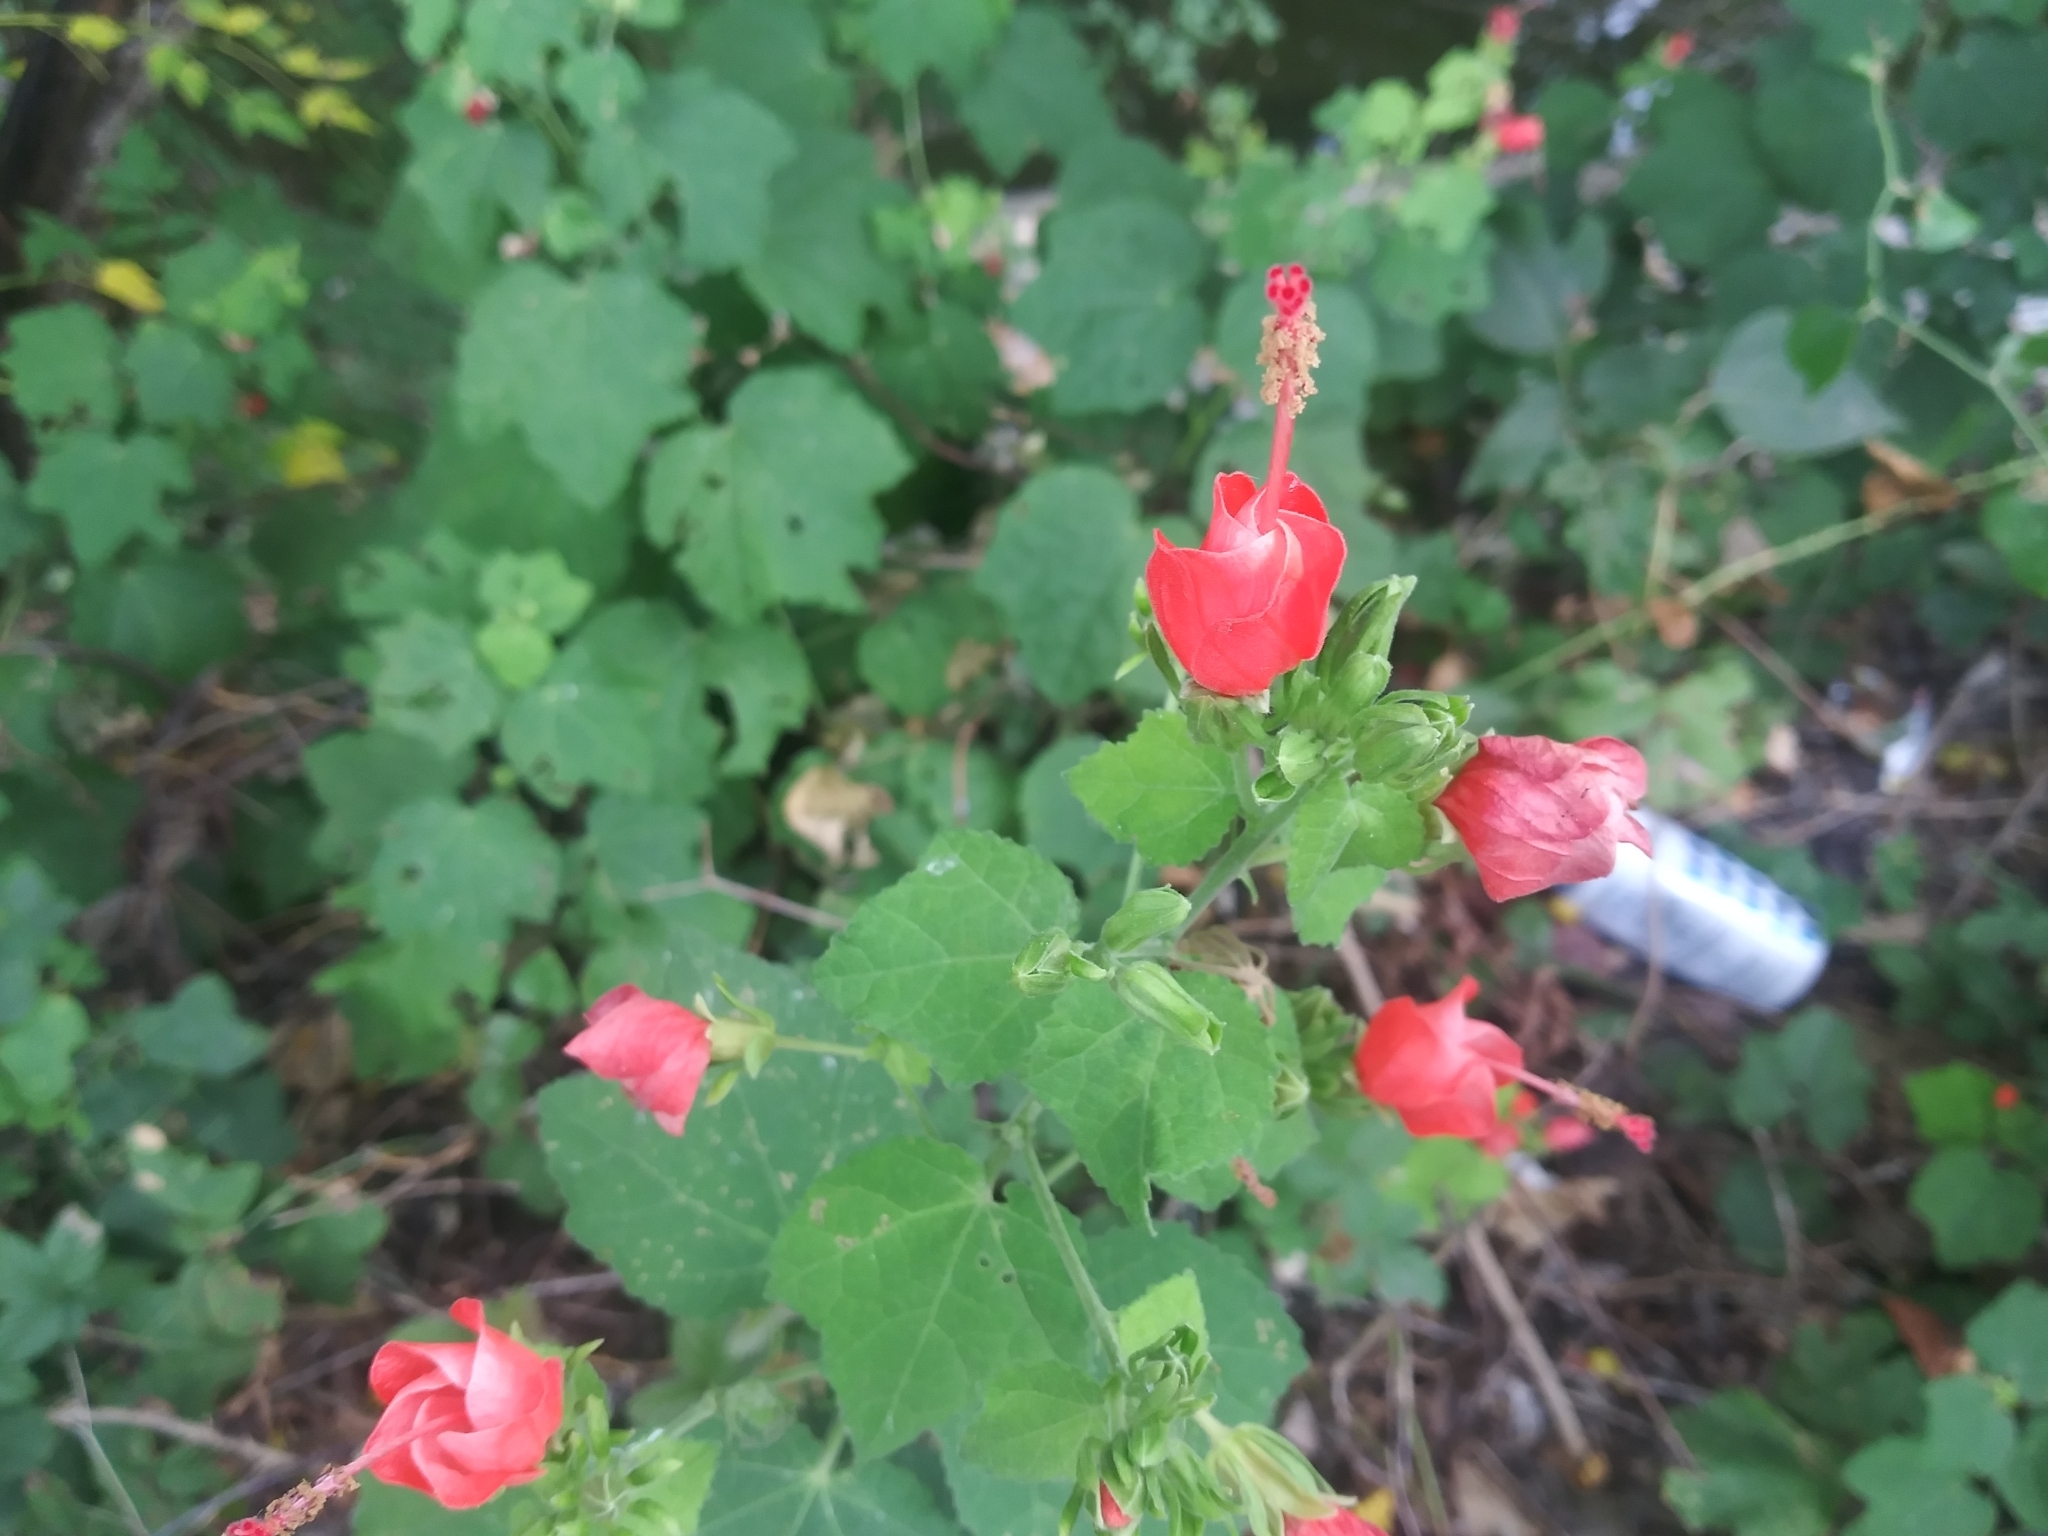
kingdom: Plantae
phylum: Tracheophyta
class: Magnoliopsida
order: Malvales
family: Malvaceae
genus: Malvaviscus
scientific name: Malvaviscus arboreus
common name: Wax mallow
